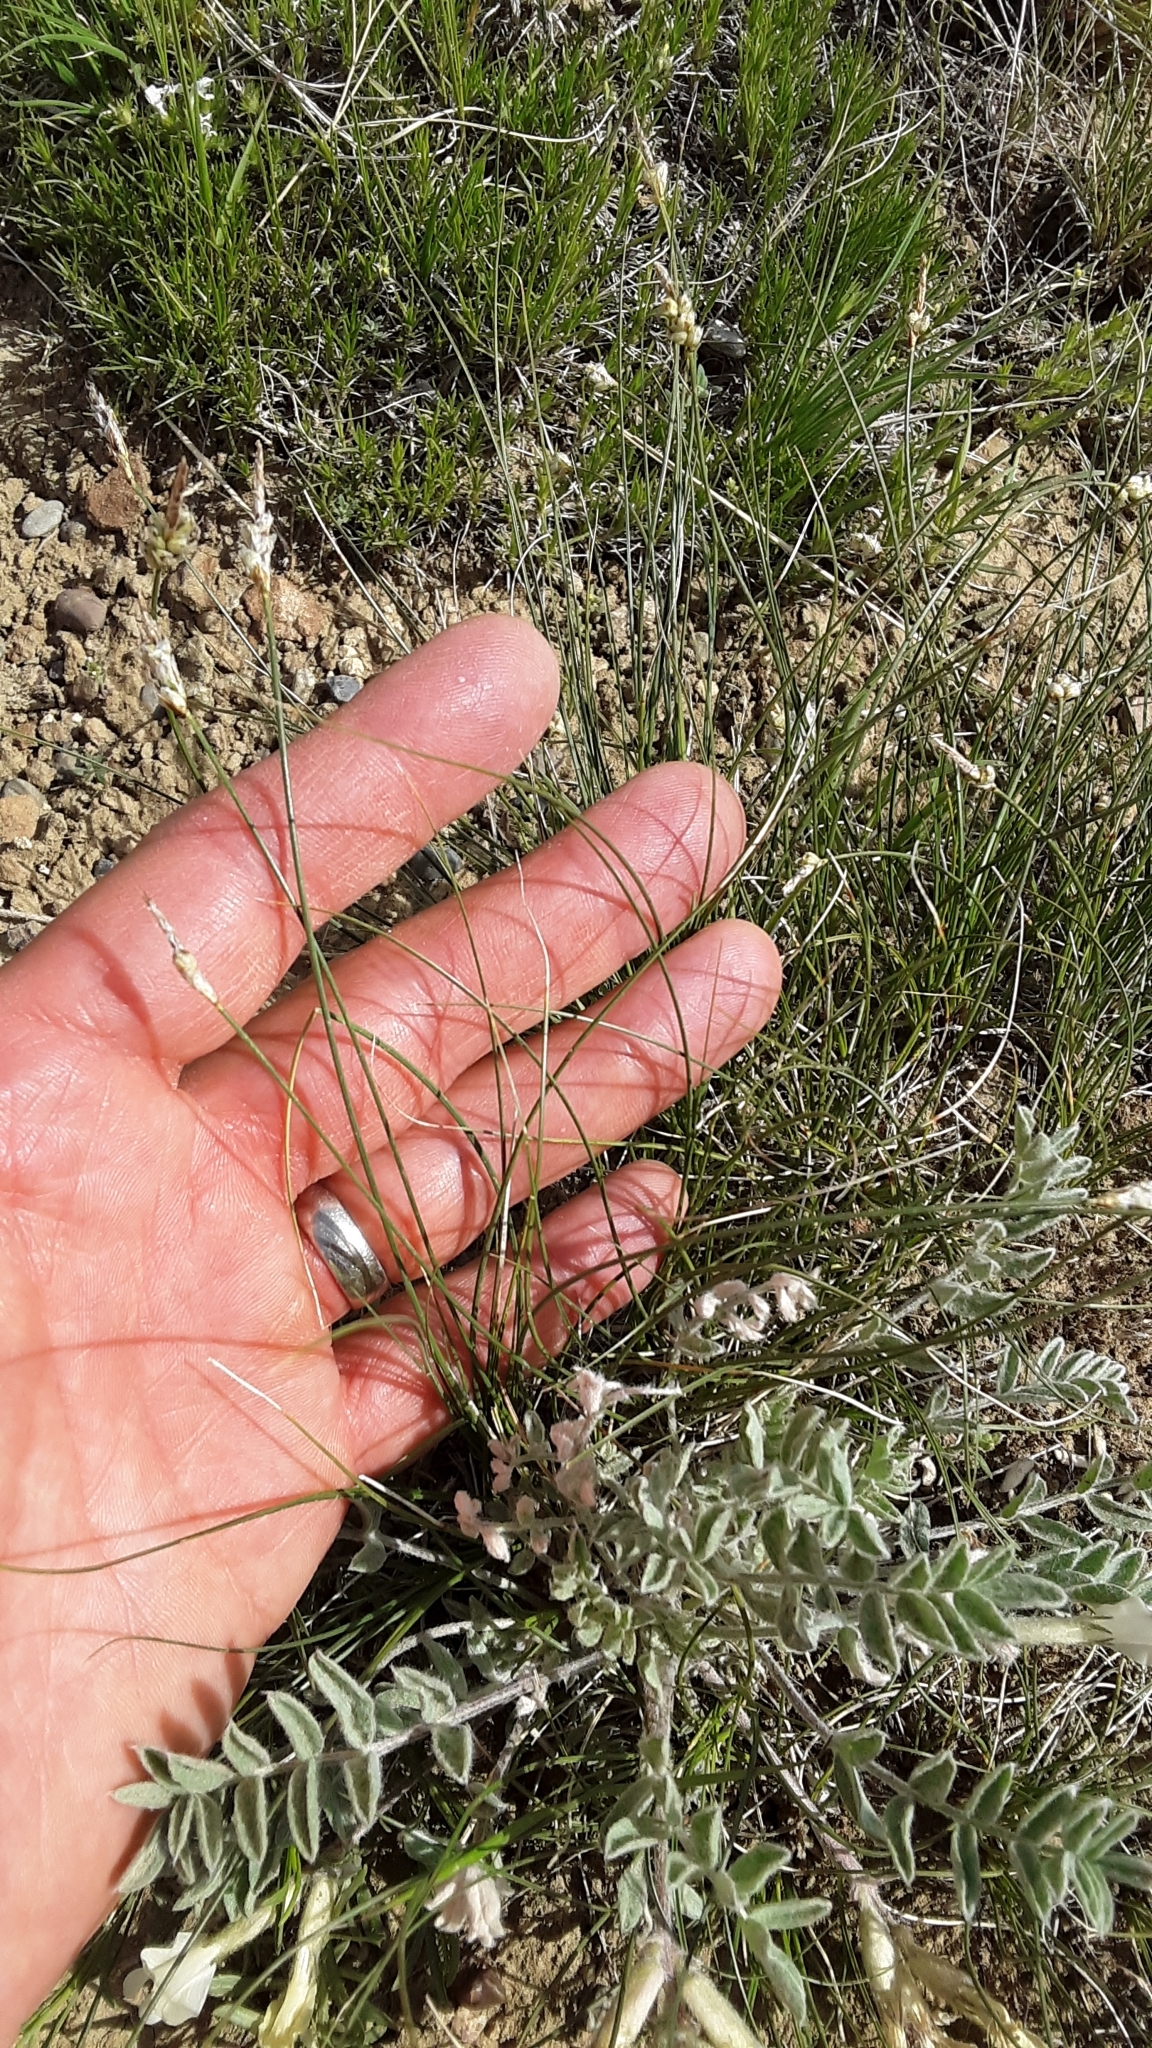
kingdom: Plantae
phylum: Tracheophyta
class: Liliopsida
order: Poales
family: Cyperaceae
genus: Carex
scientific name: Carex filifolia
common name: Threadleaf sedge
